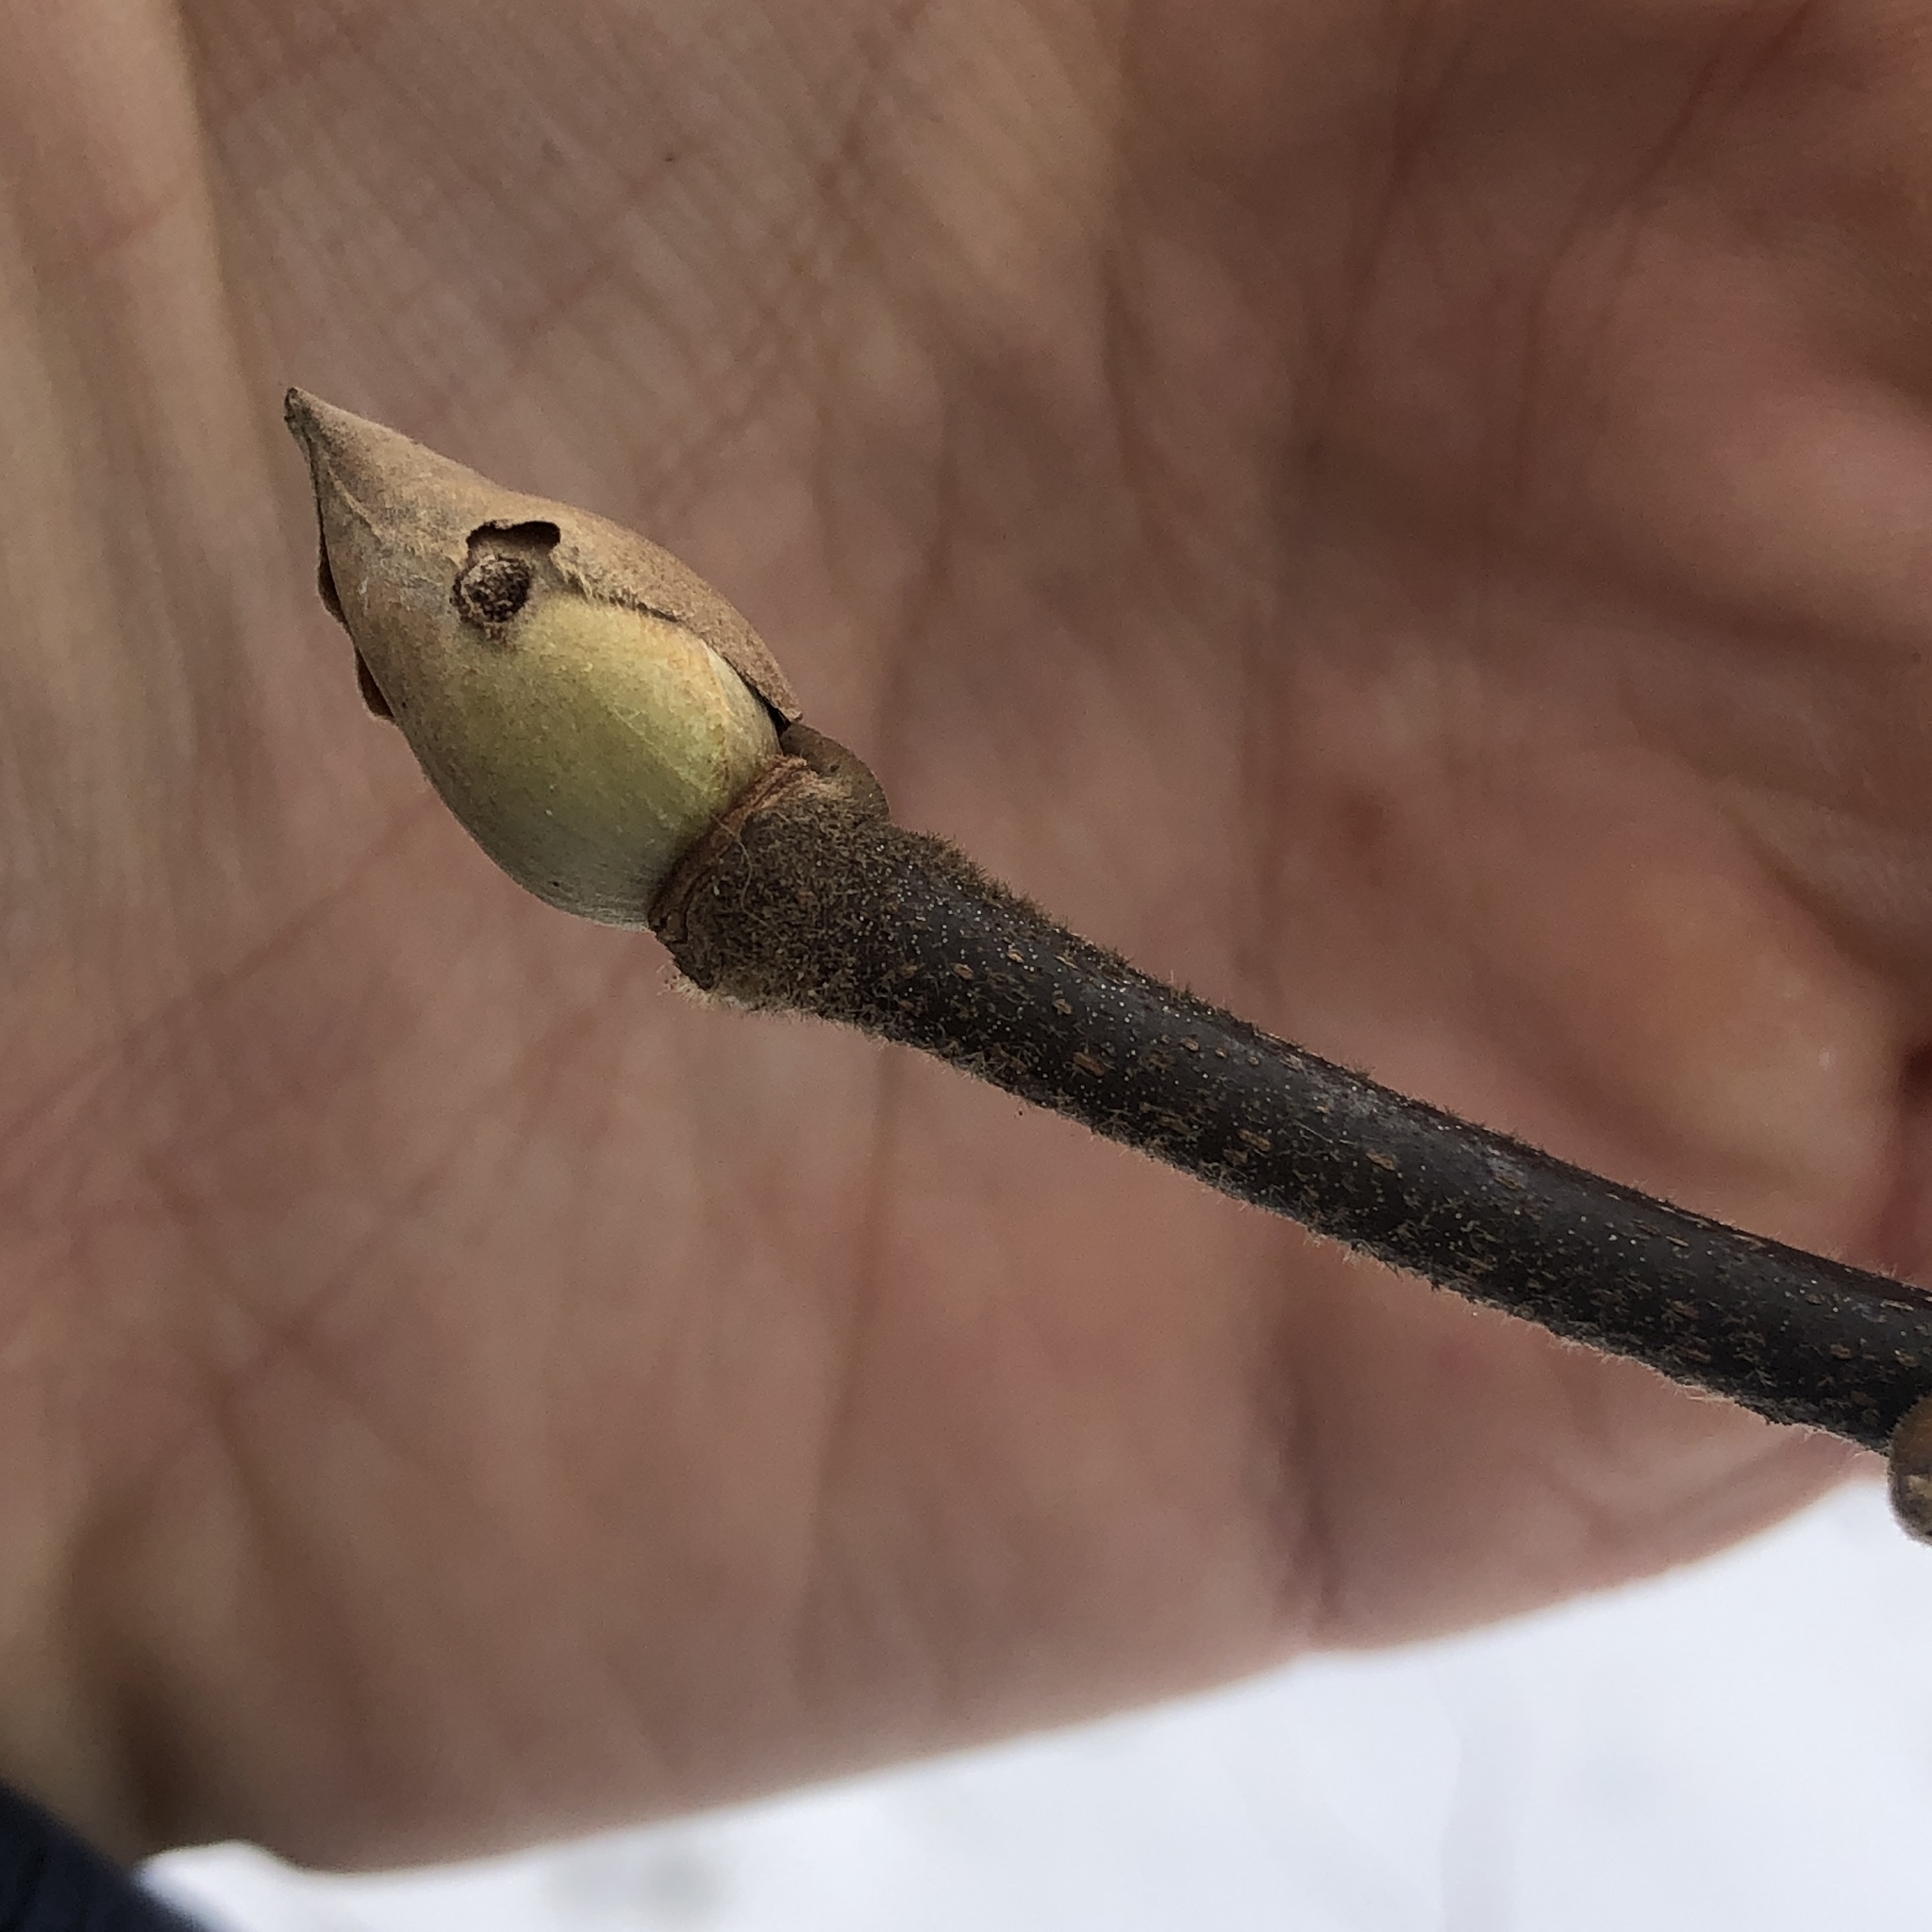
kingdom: Plantae
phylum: Tracheophyta
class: Magnoliopsida
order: Fagales
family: Juglandaceae
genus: Carya
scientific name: Carya alba
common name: Mockernut hickory
